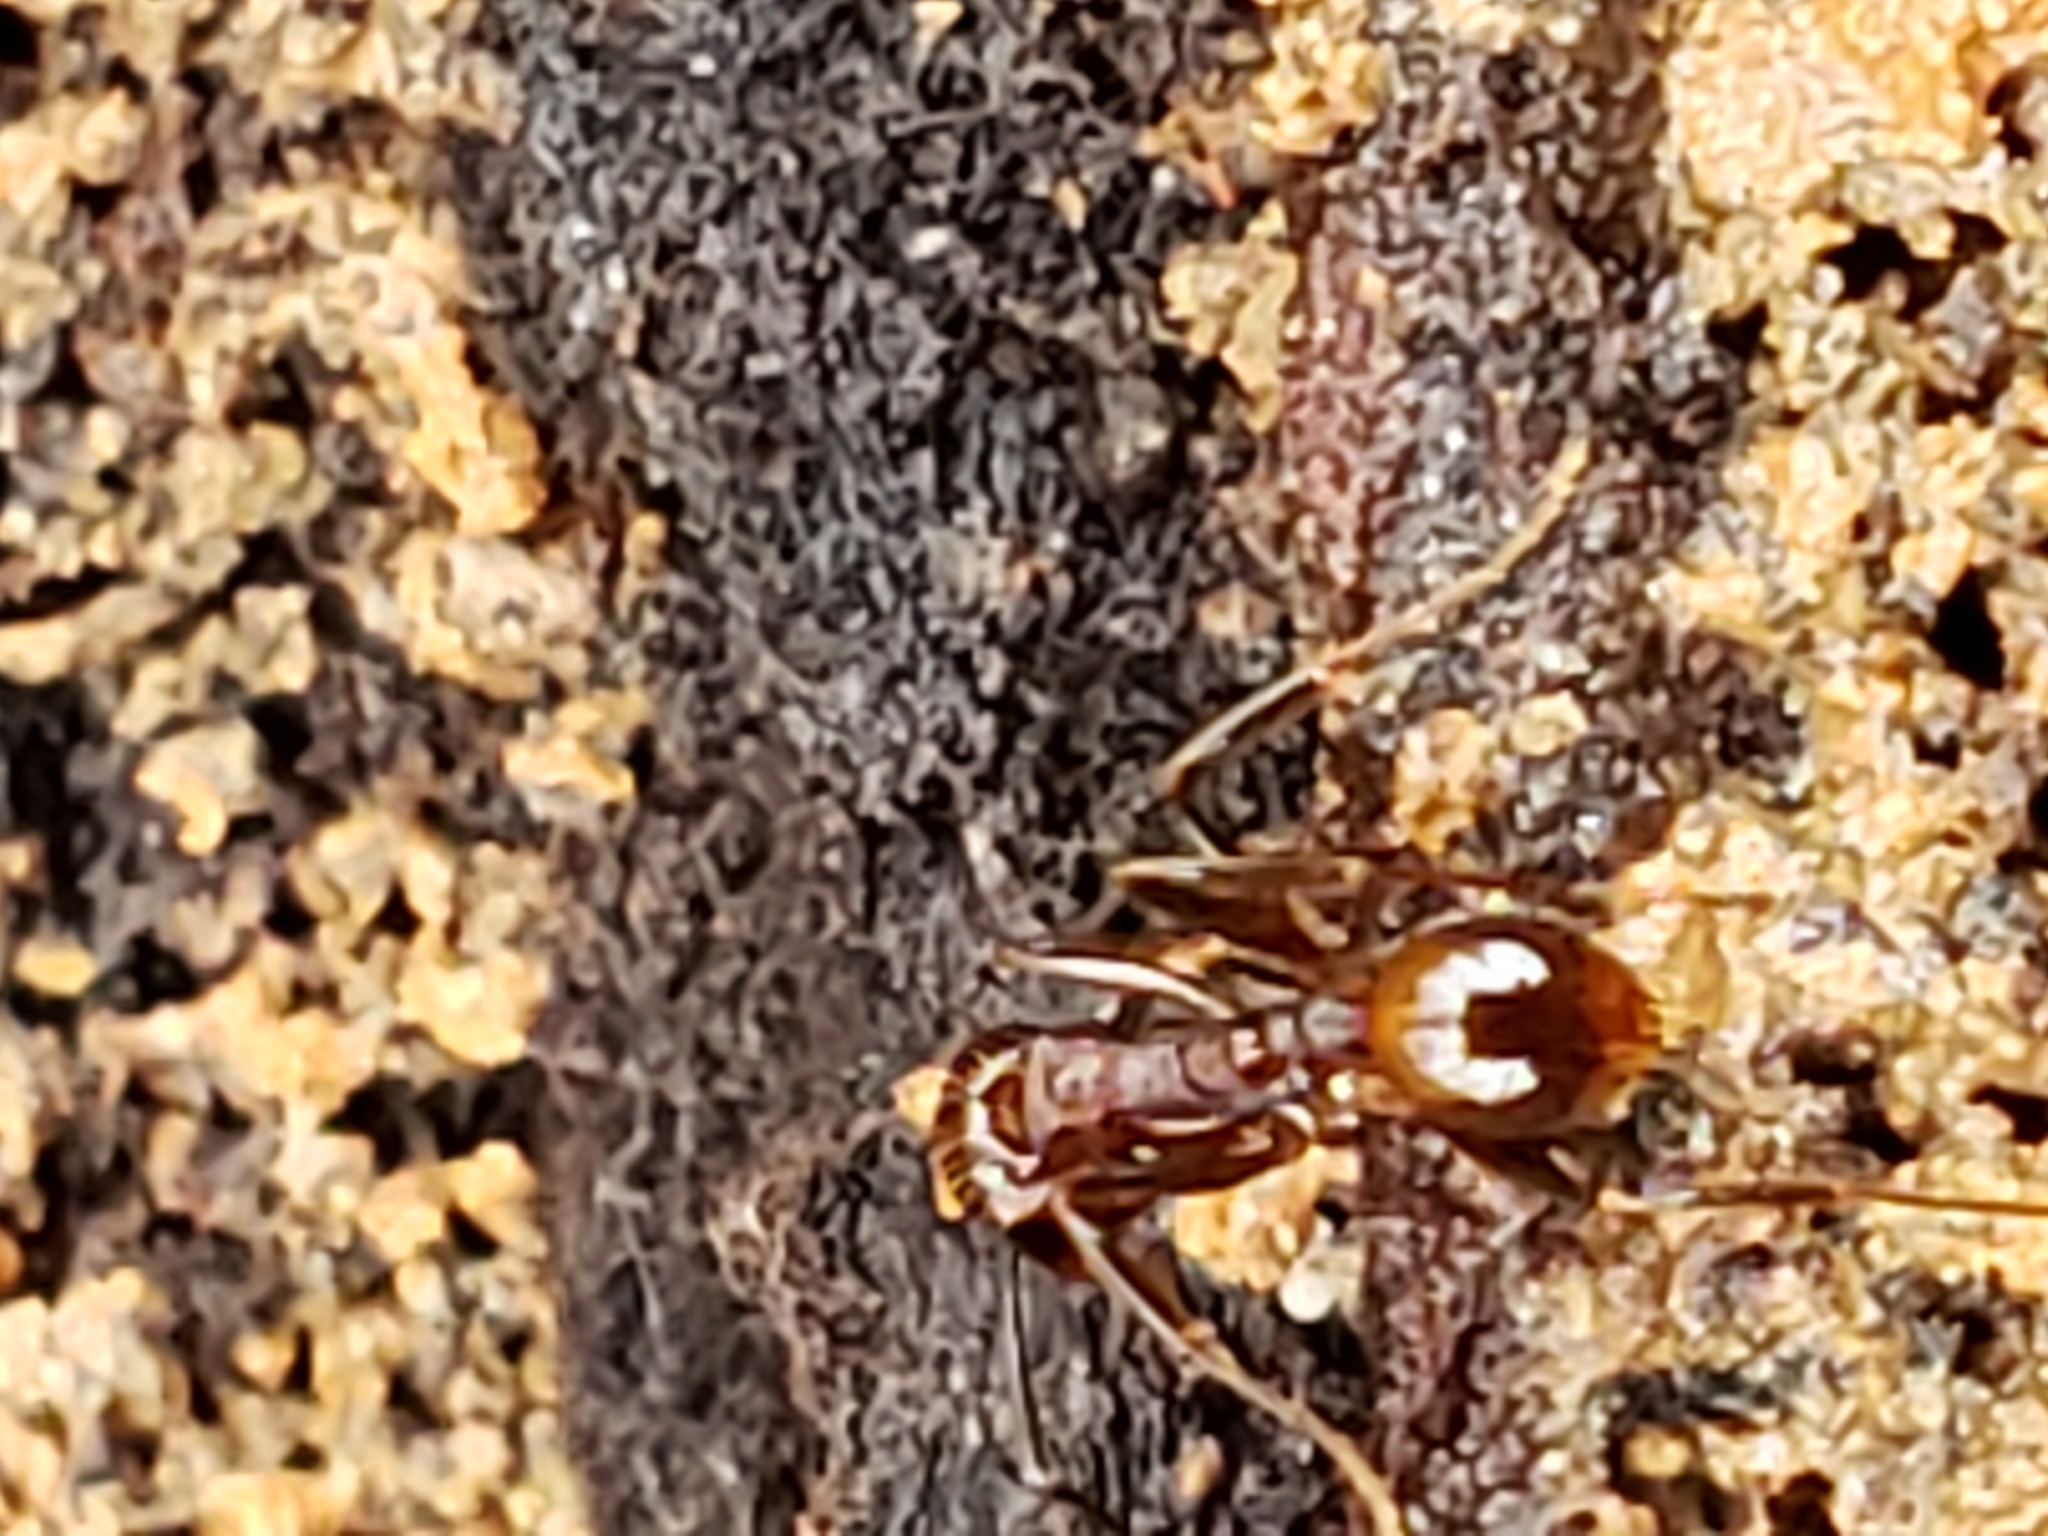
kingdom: Animalia
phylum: Arthropoda
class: Insecta
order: Hymenoptera
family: Formicidae
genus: Aphaenogaster
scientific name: Aphaenogaster fulva
